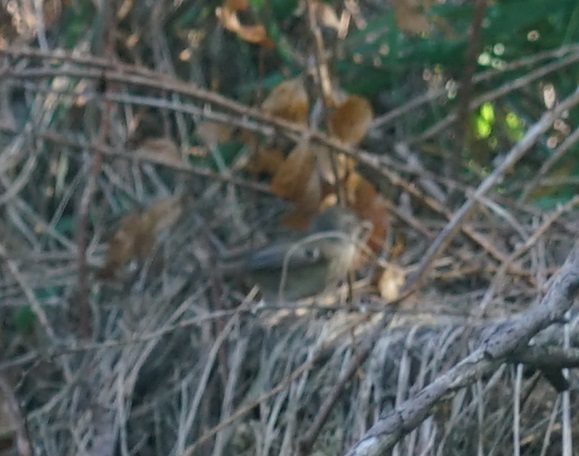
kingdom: Animalia
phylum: Chordata
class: Aves
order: Passeriformes
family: Acanthizidae
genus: Sericornis
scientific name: Sericornis frontalis
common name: White-browed scrubwren
